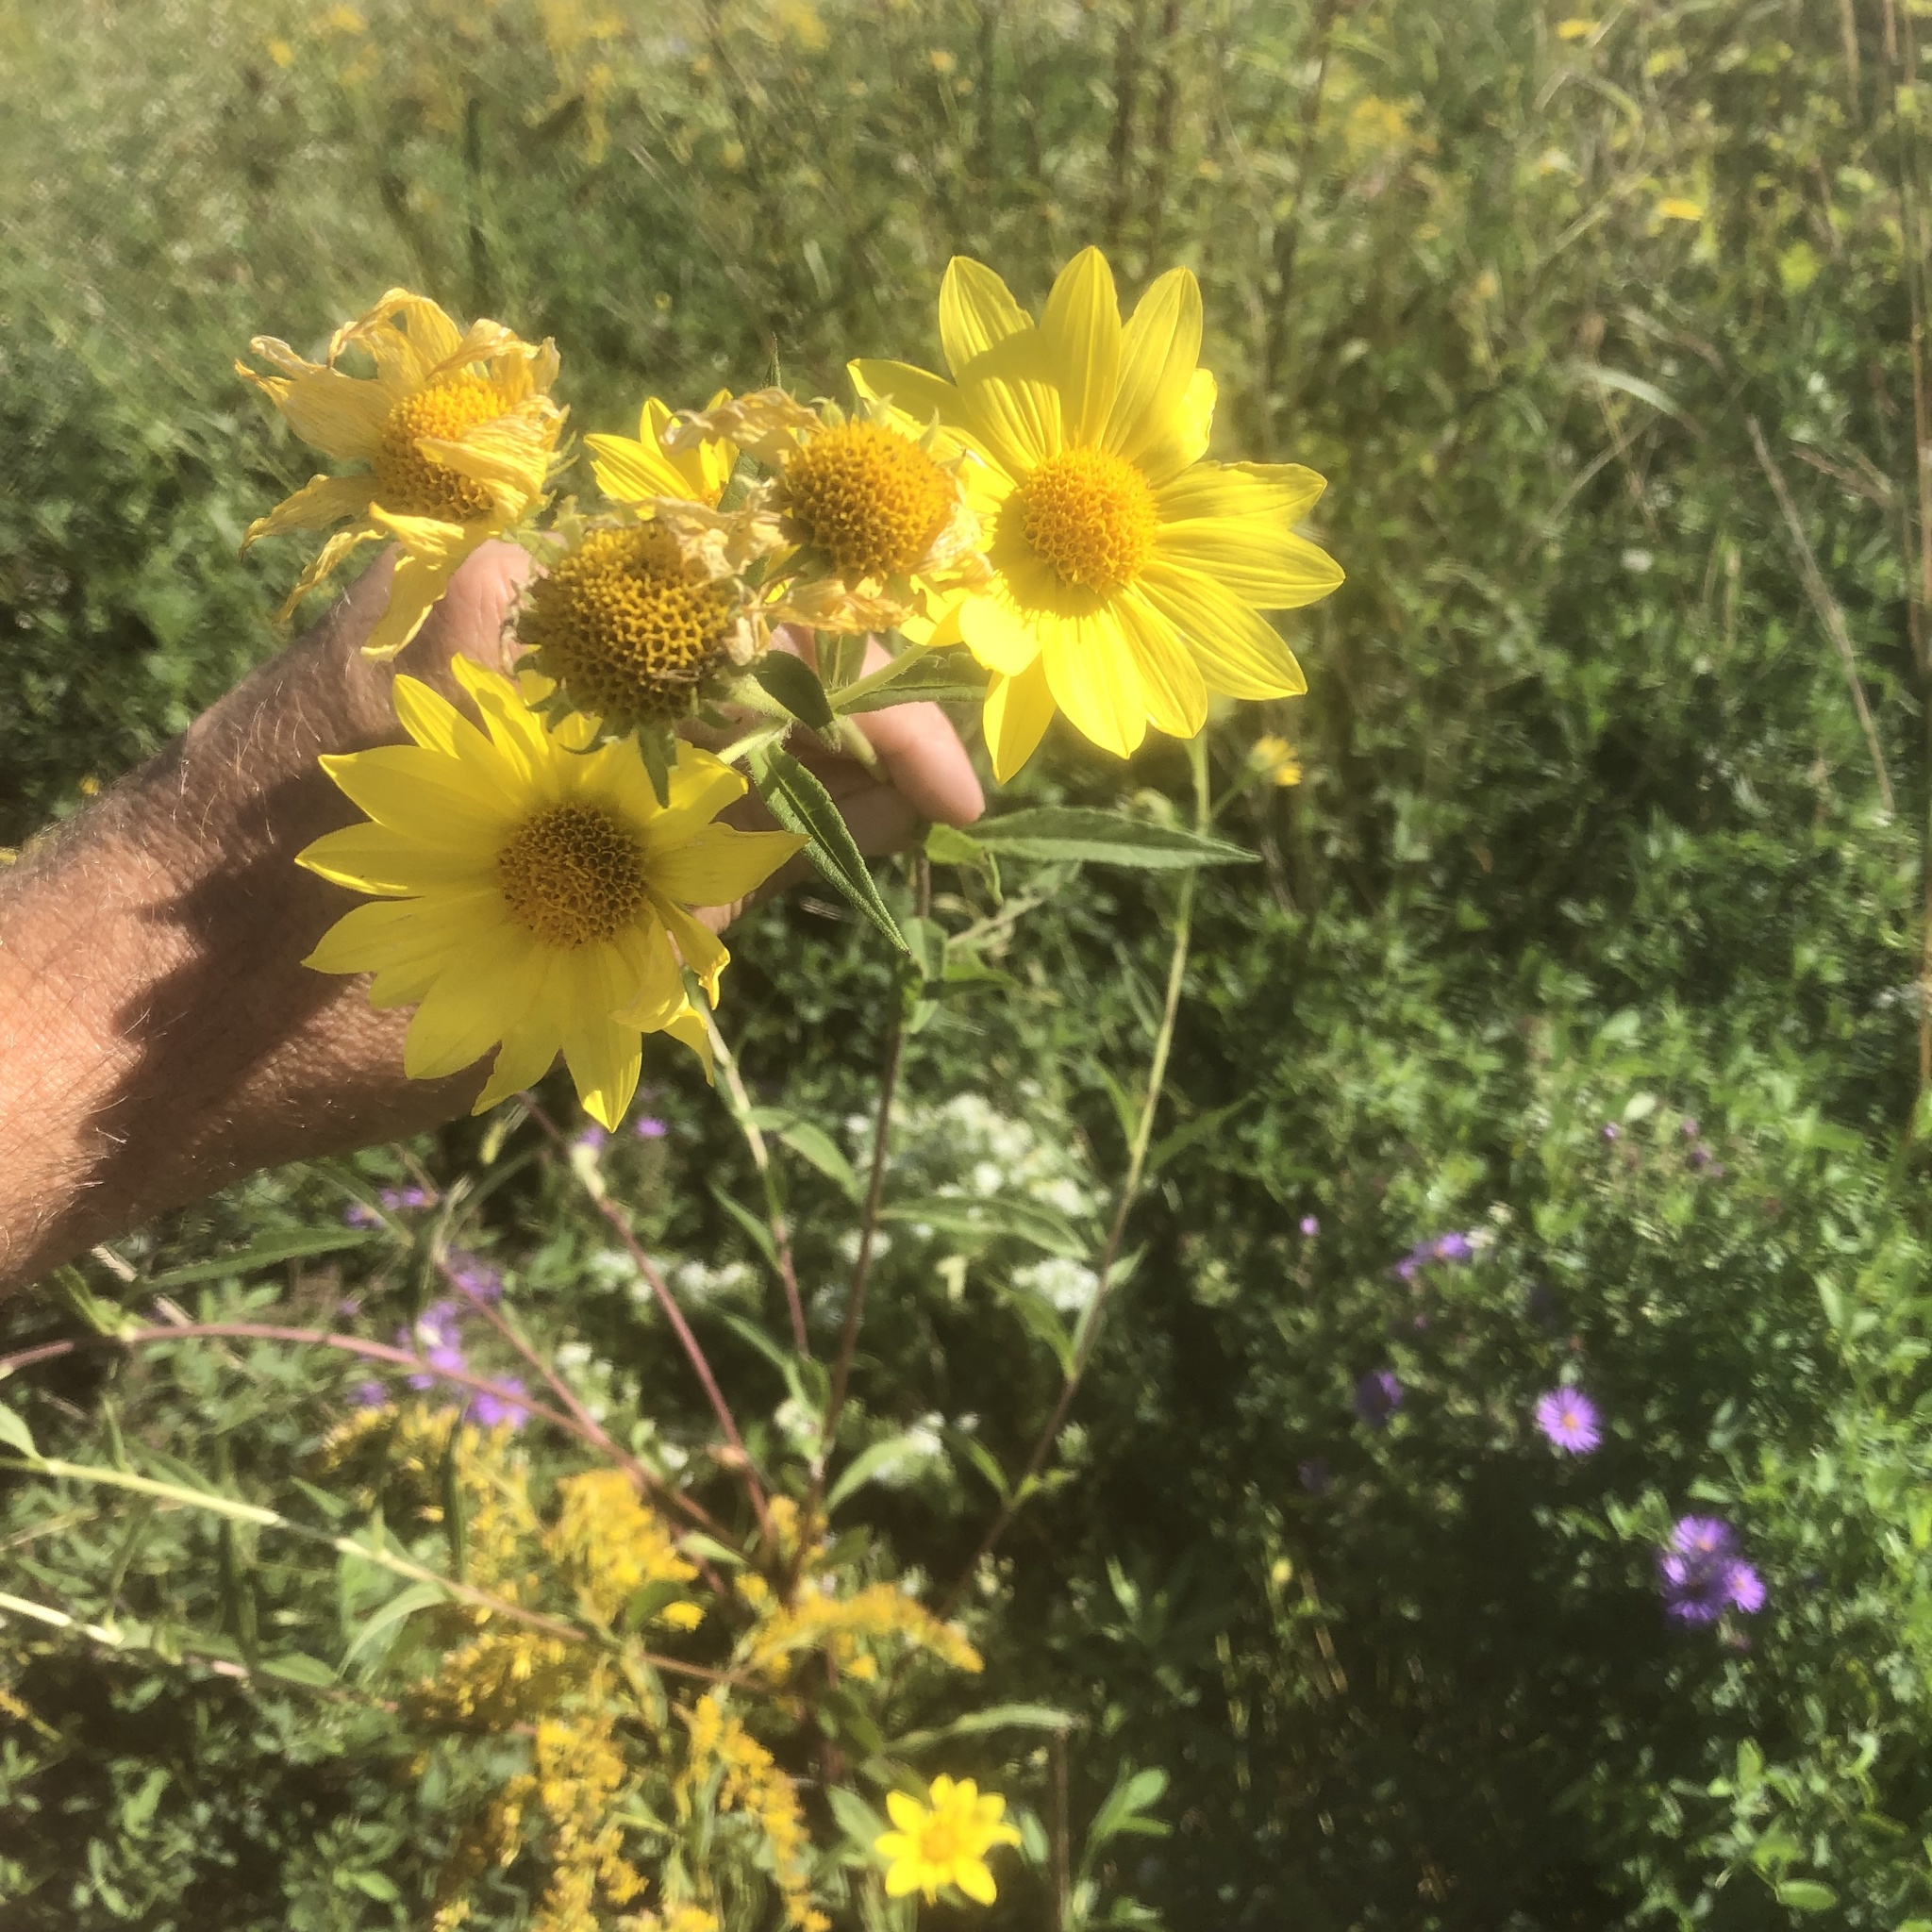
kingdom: Plantae
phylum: Tracheophyta
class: Magnoliopsida
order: Asterales
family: Asteraceae
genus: Helianthus
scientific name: Helianthus maximiliani
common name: Maximilian's sunflower
